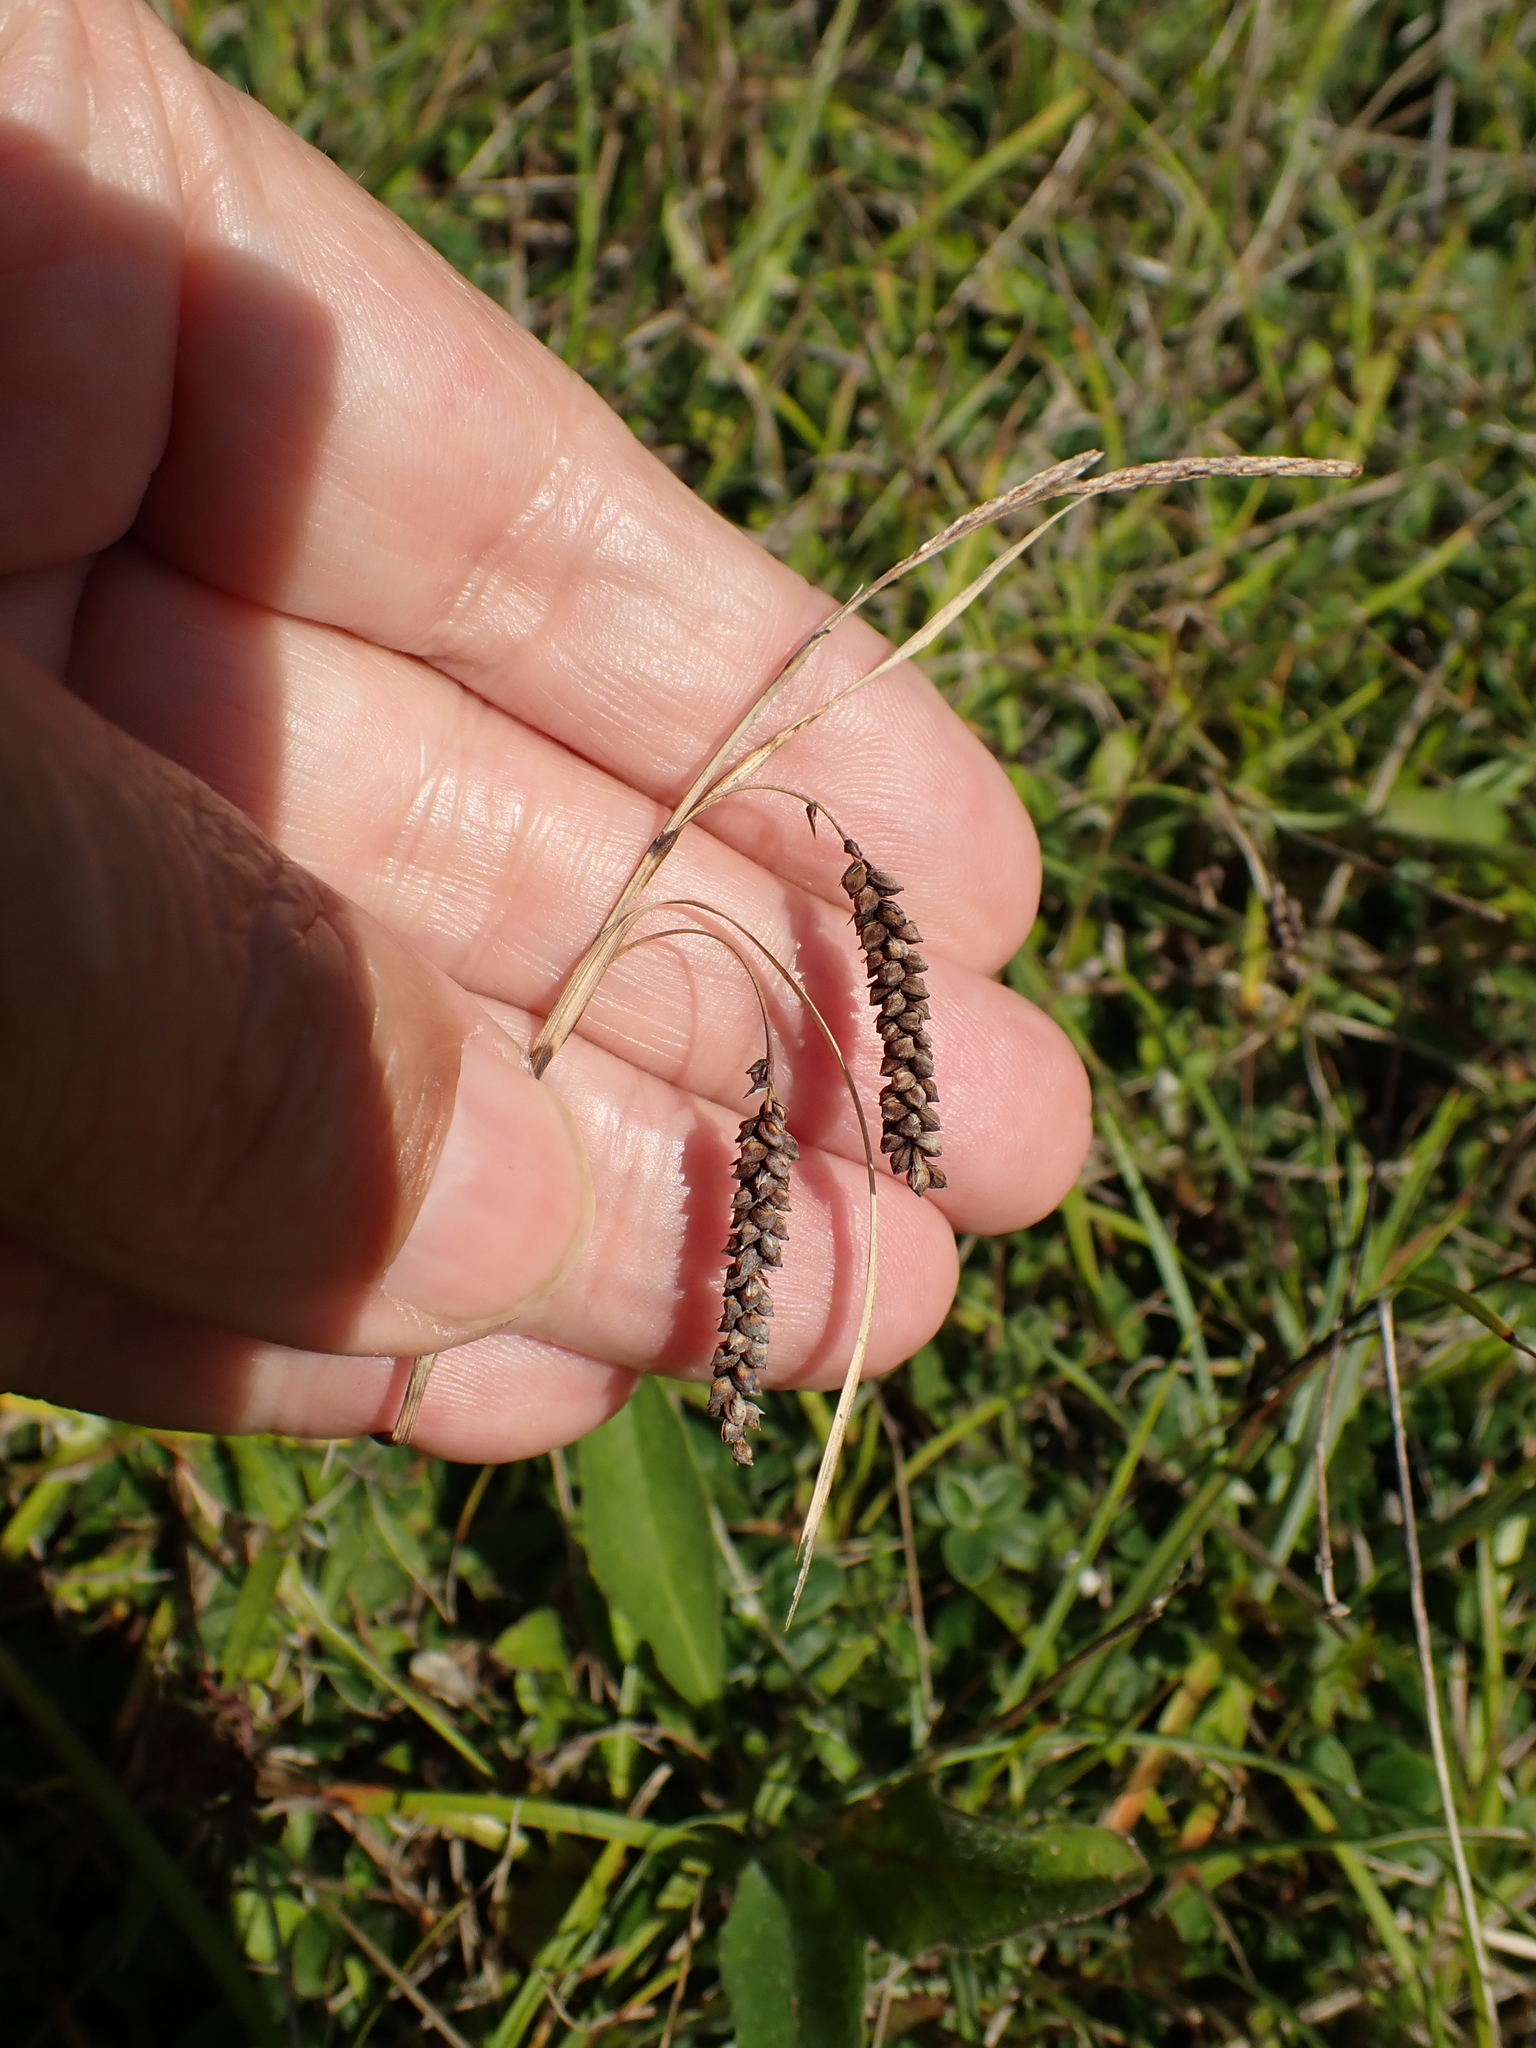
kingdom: Plantae
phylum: Tracheophyta
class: Liliopsida
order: Poales
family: Cyperaceae
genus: Carex
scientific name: Carex flacca
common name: Glaucous sedge
